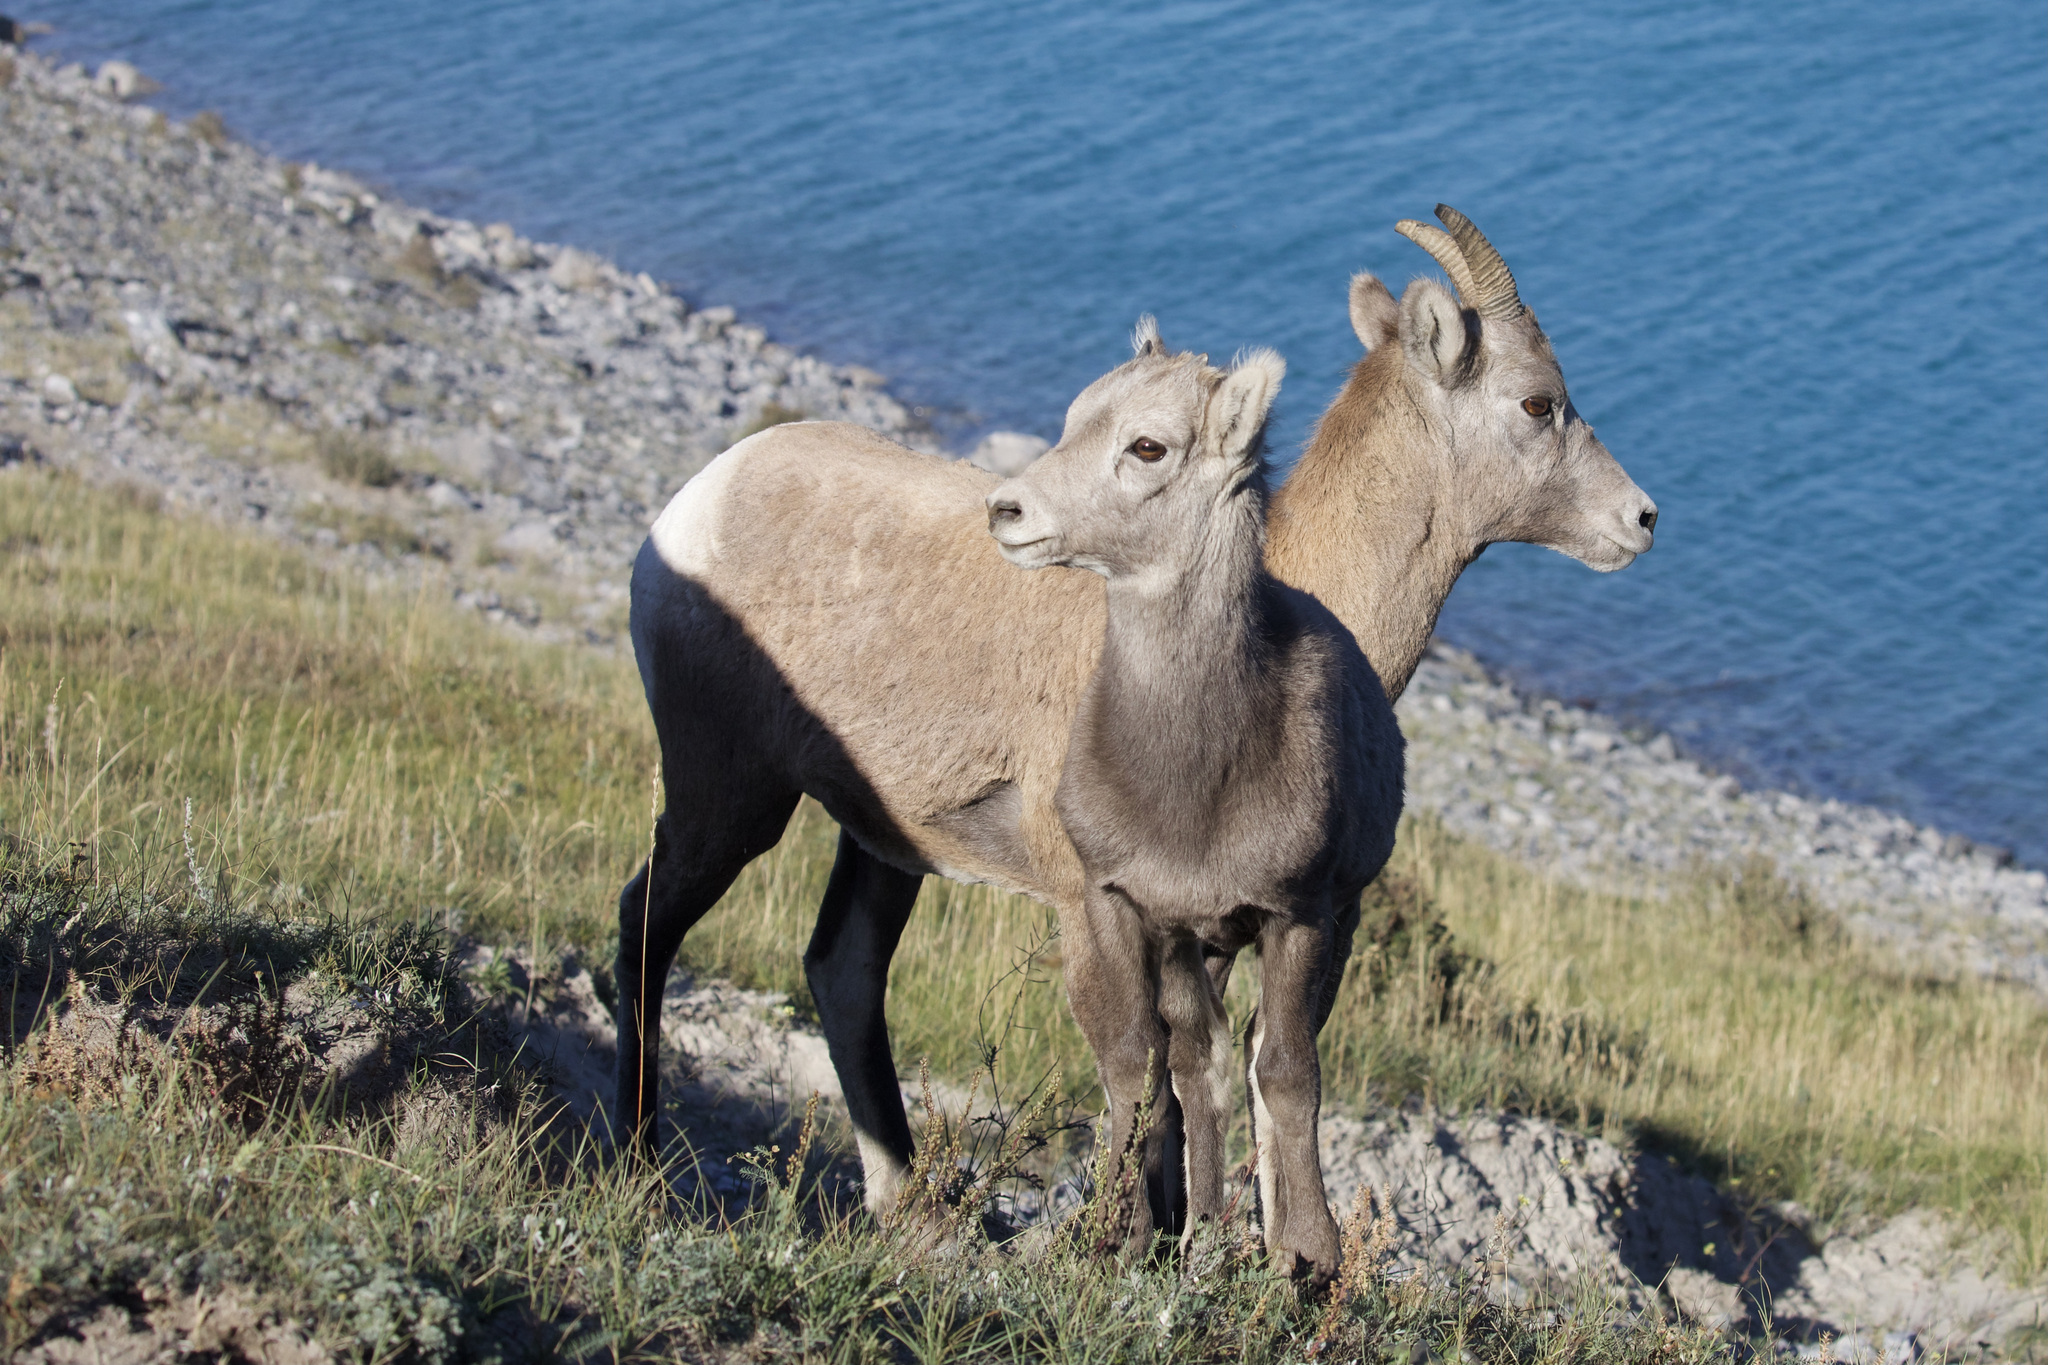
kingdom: Animalia
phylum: Chordata
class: Mammalia
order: Artiodactyla
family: Bovidae
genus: Ovis
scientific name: Ovis canadensis
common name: Bighorn sheep
